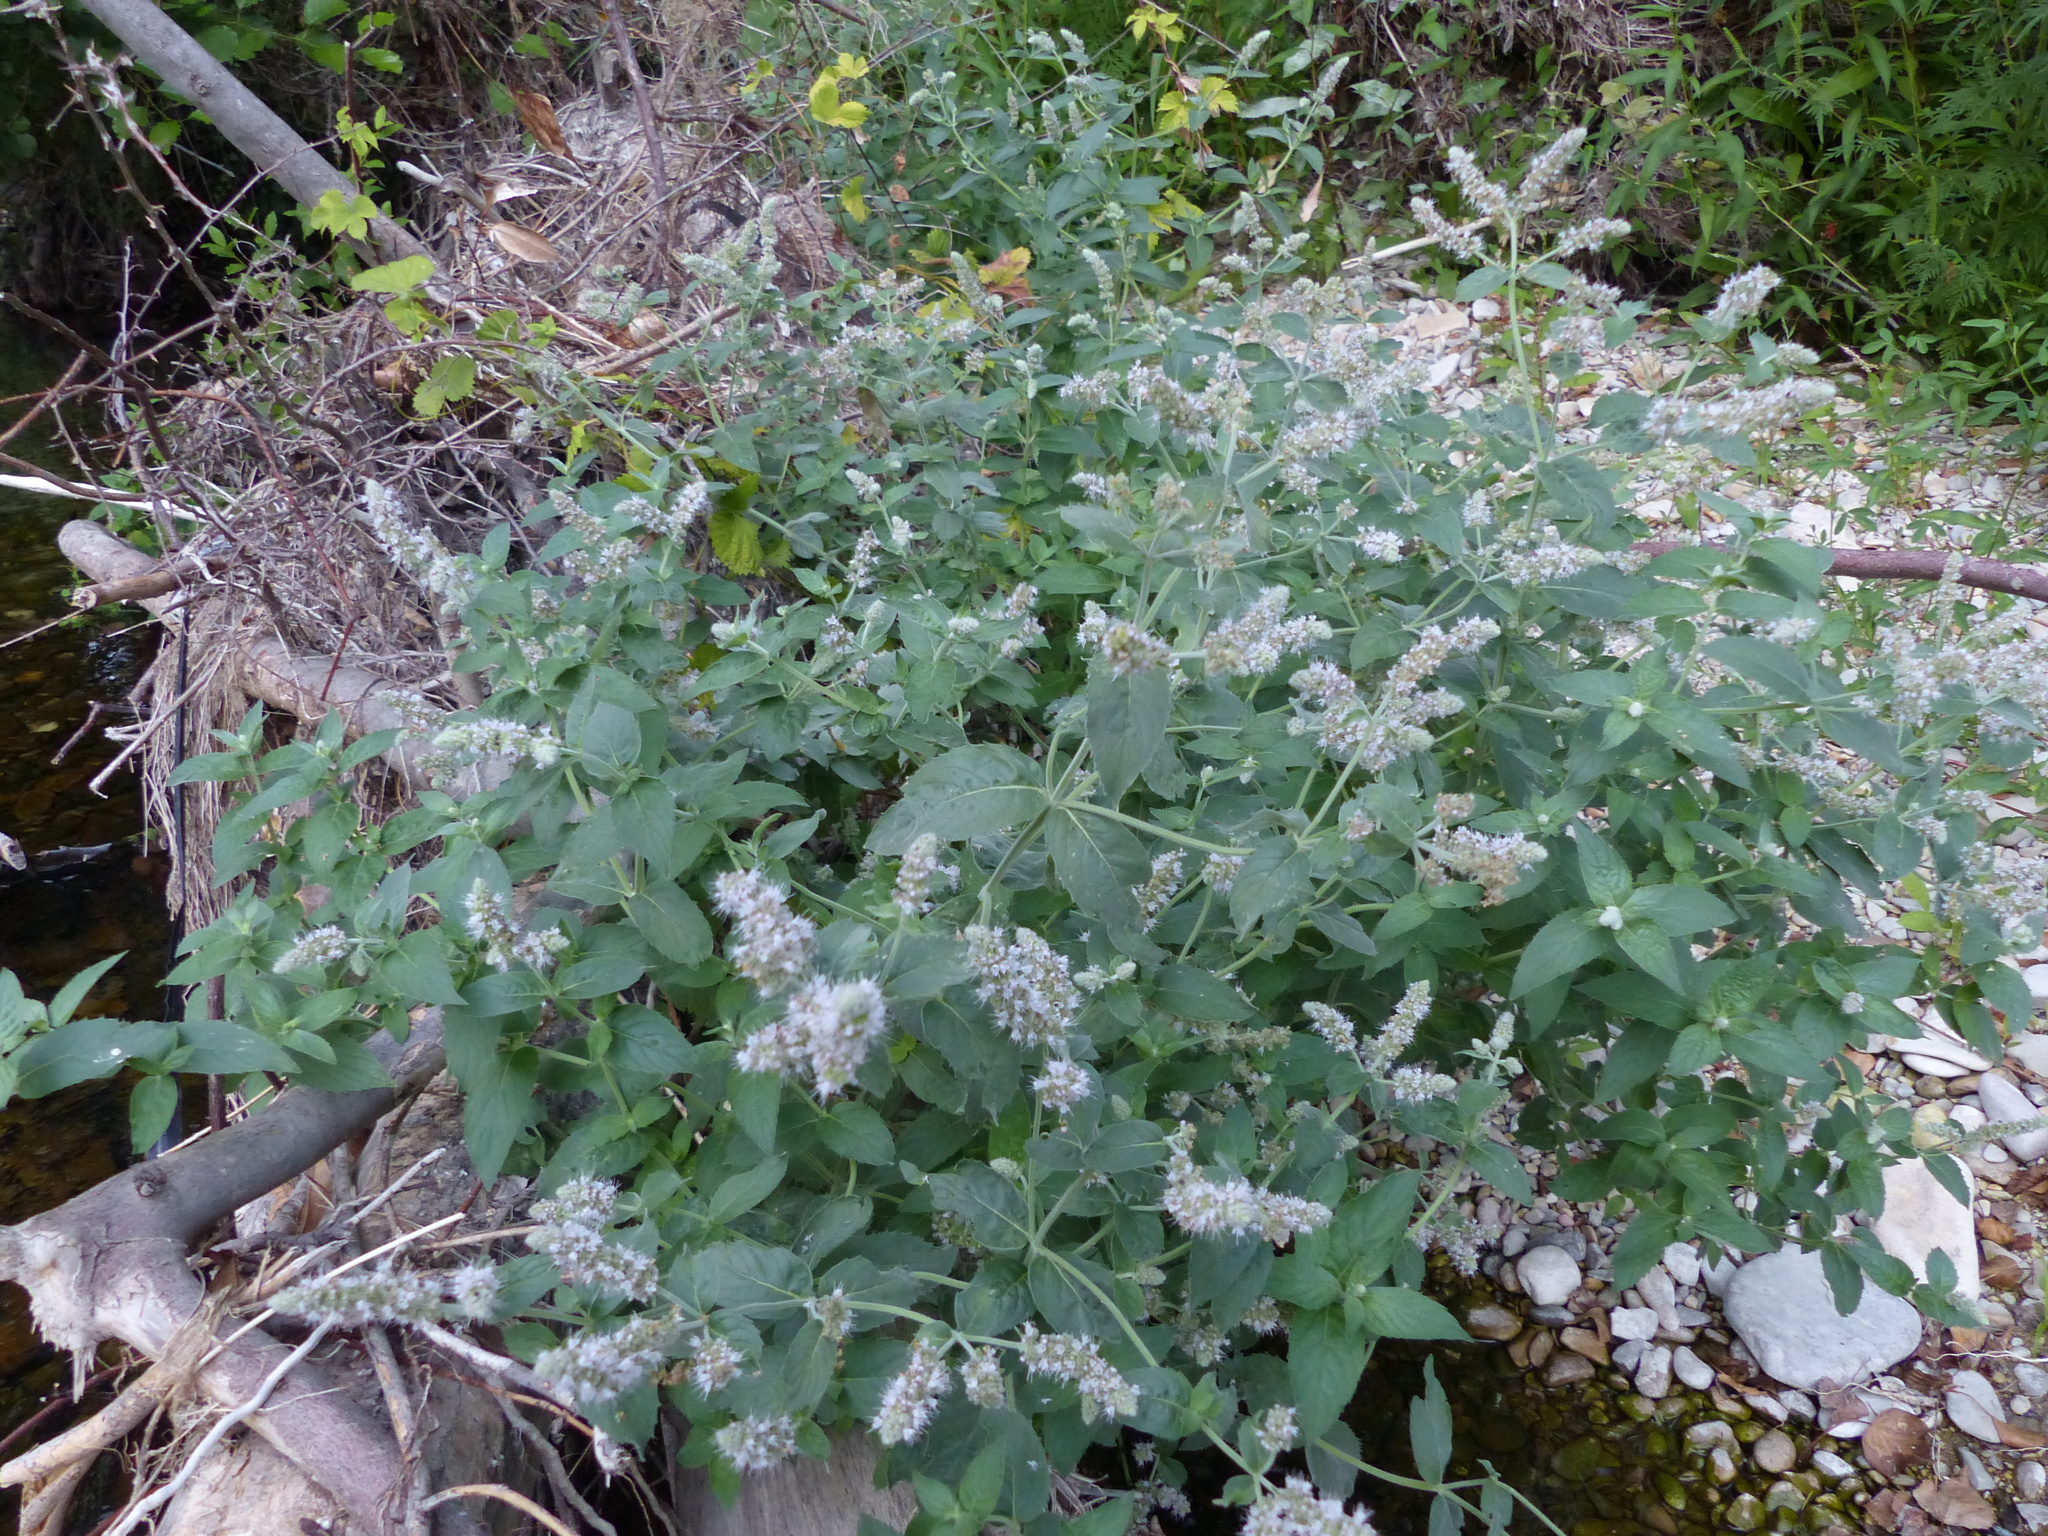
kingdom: Plantae
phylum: Tracheophyta
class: Magnoliopsida
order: Lamiales
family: Lamiaceae
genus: Mentha
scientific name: Mentha longifolia
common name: Horse mint
